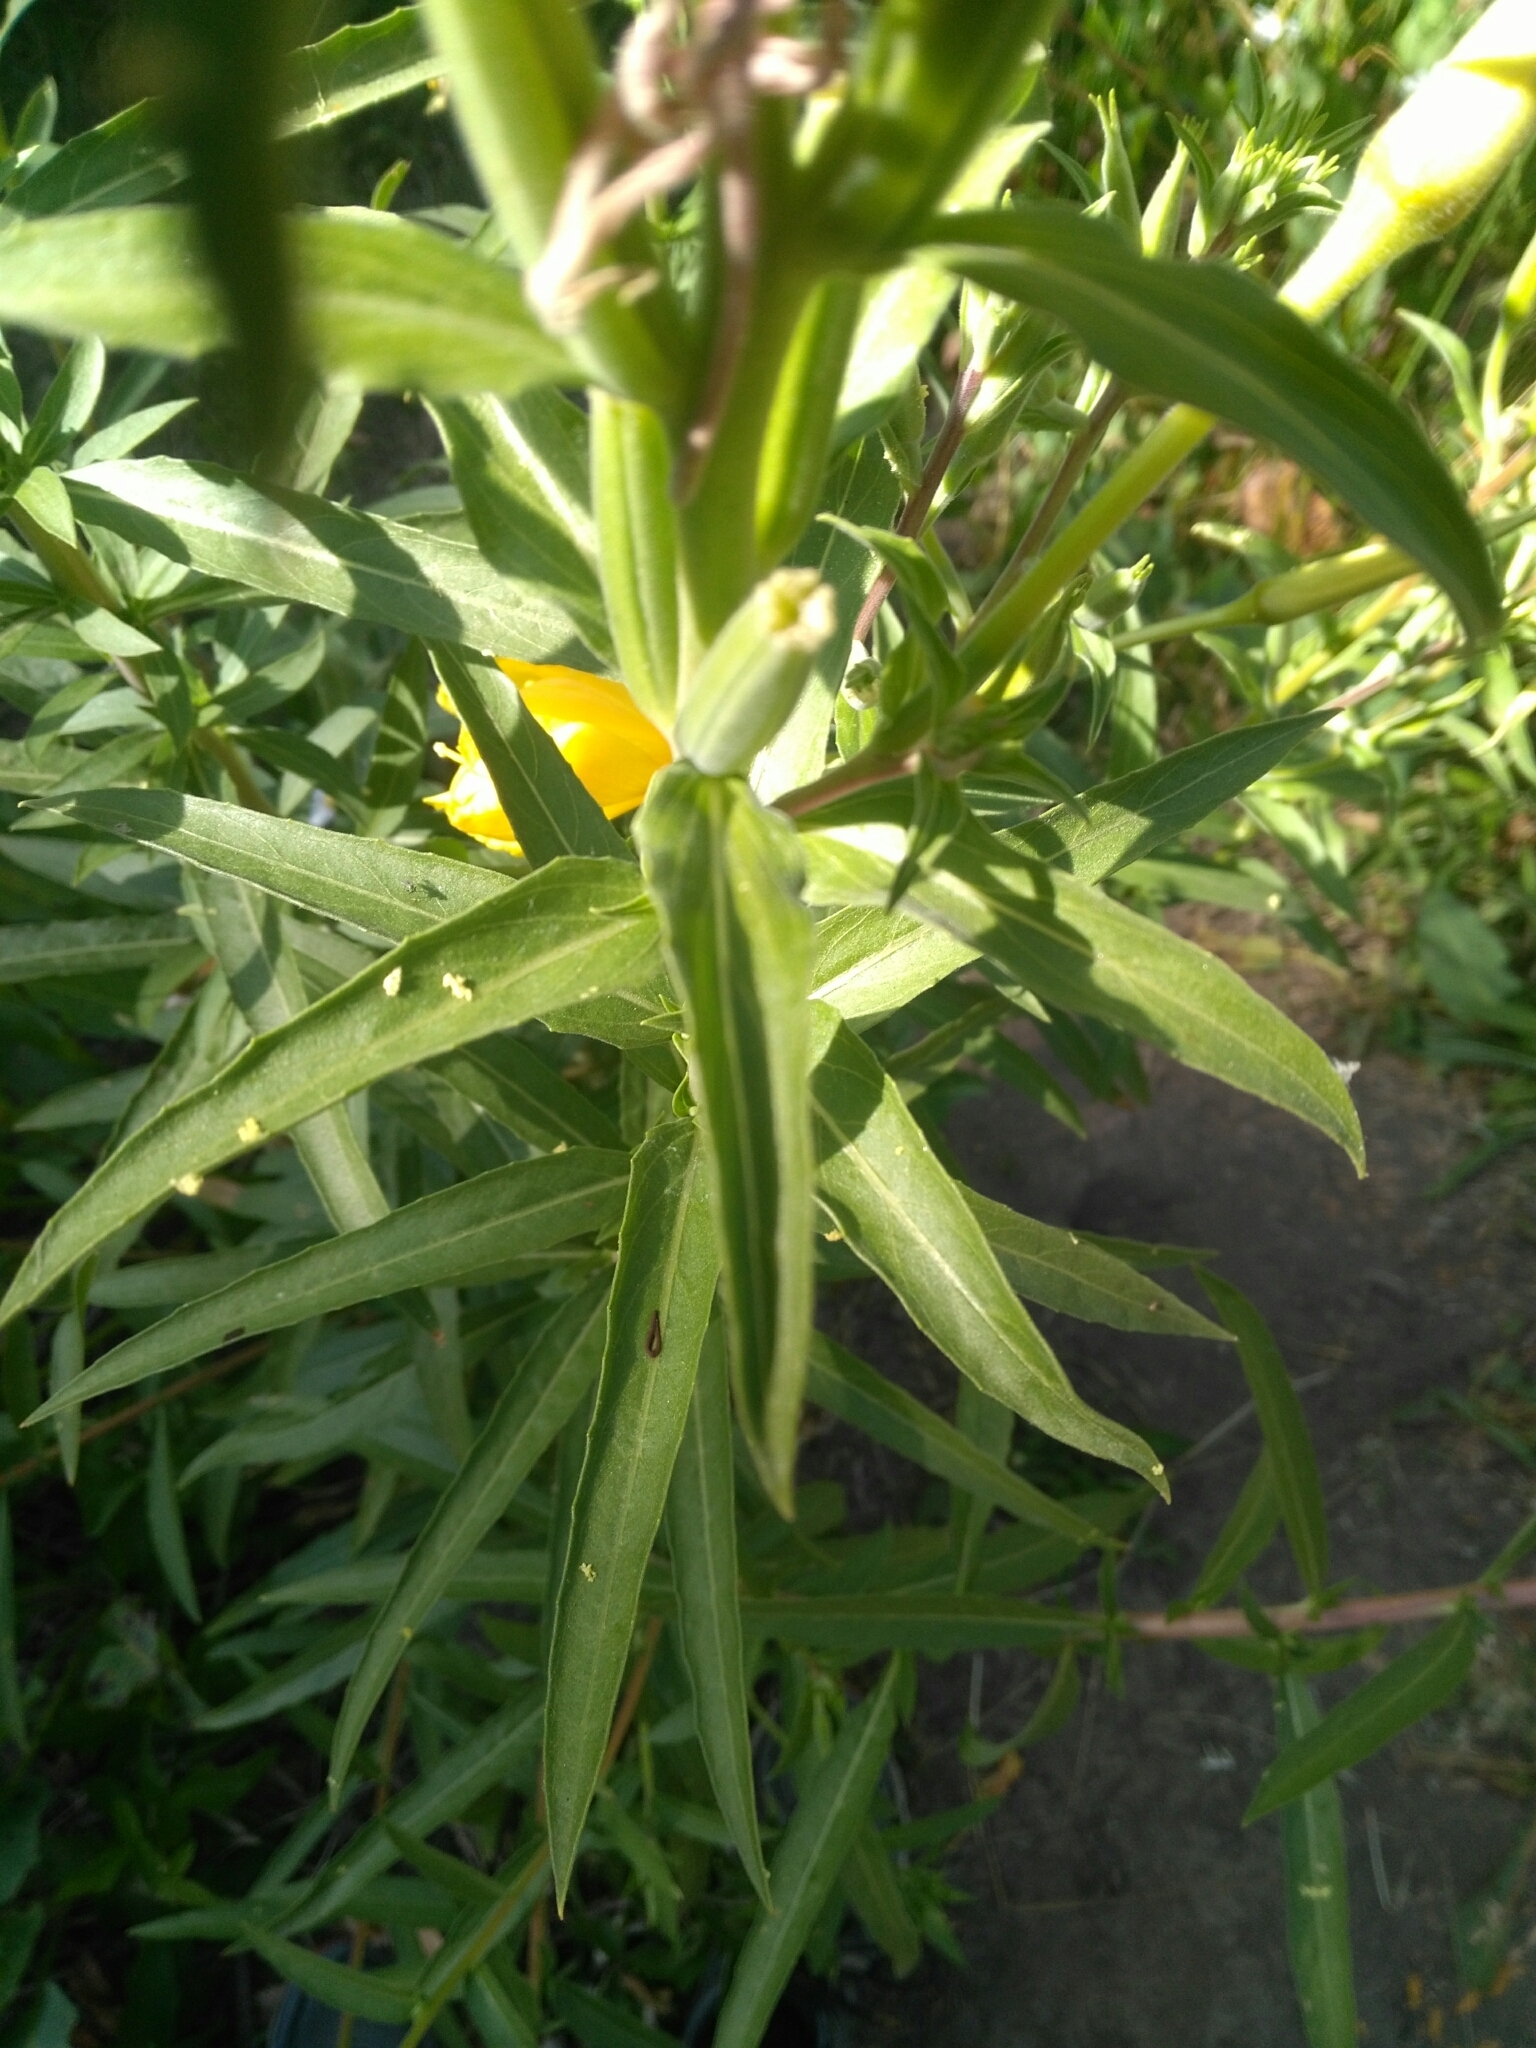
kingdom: Plantae
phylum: Tracheophyta
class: Magnoliopsida
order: Myrtales
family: Onagraceae
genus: Oenothera
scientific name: Oenothera elata
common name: Hooker's evening-primrose
